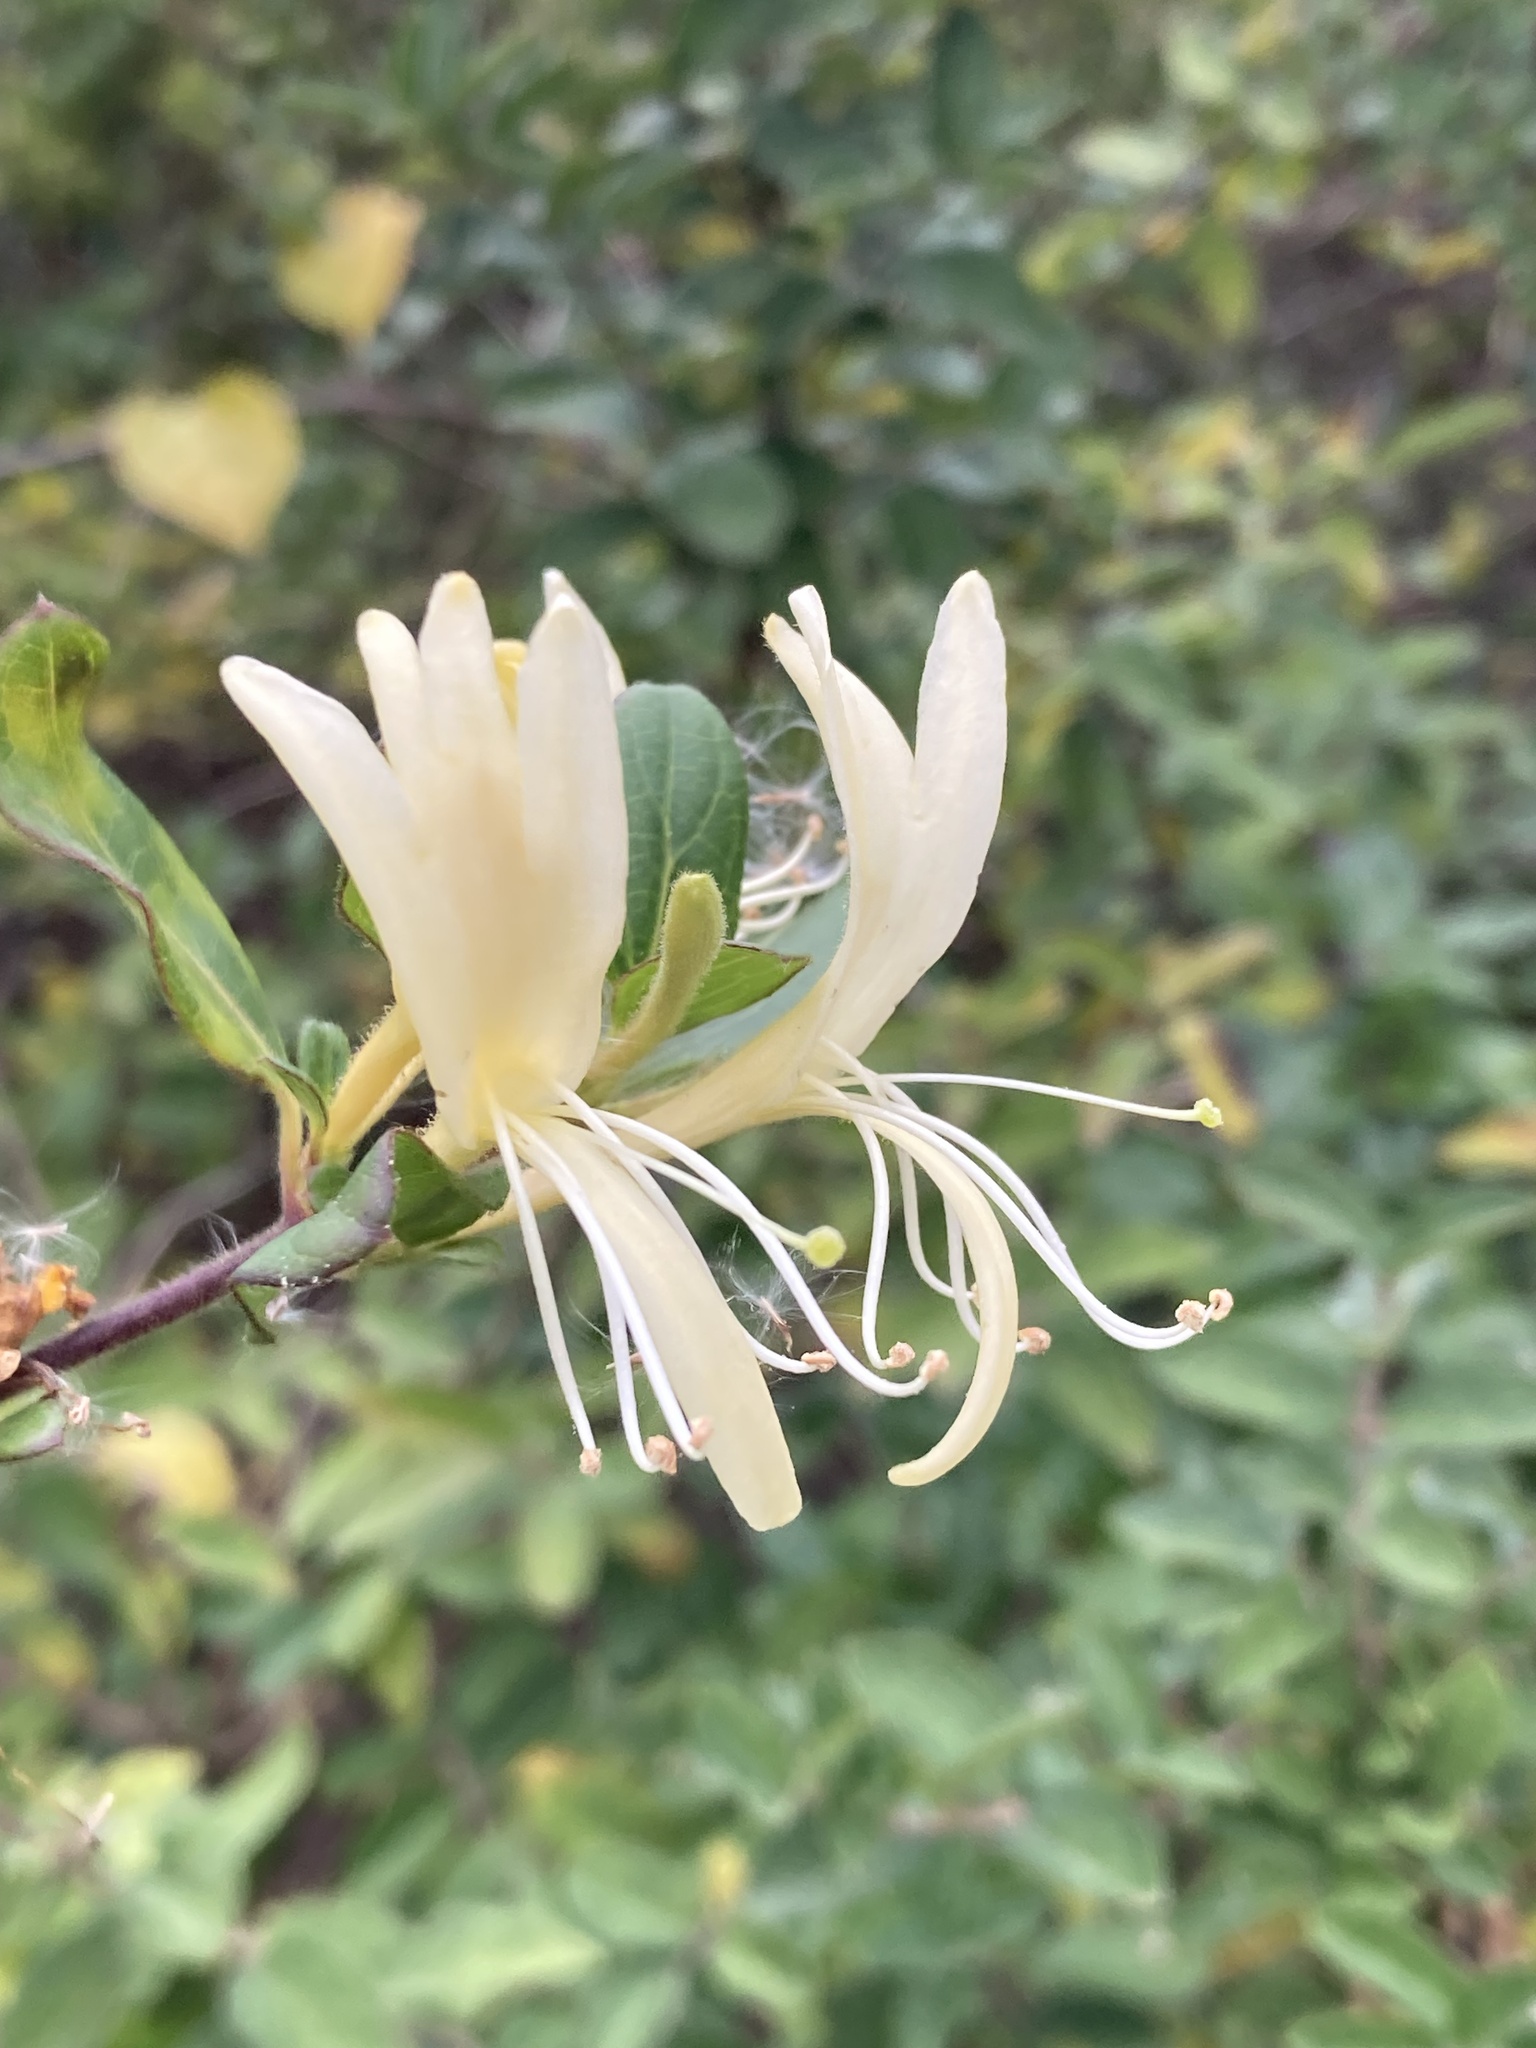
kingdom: Plantae
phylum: Tracheophyta
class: Magnoliopsida
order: Dipsacales
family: Caprifoliaceae
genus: Lonicera
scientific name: Lonicera japonica
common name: Japanese honeysuckle
